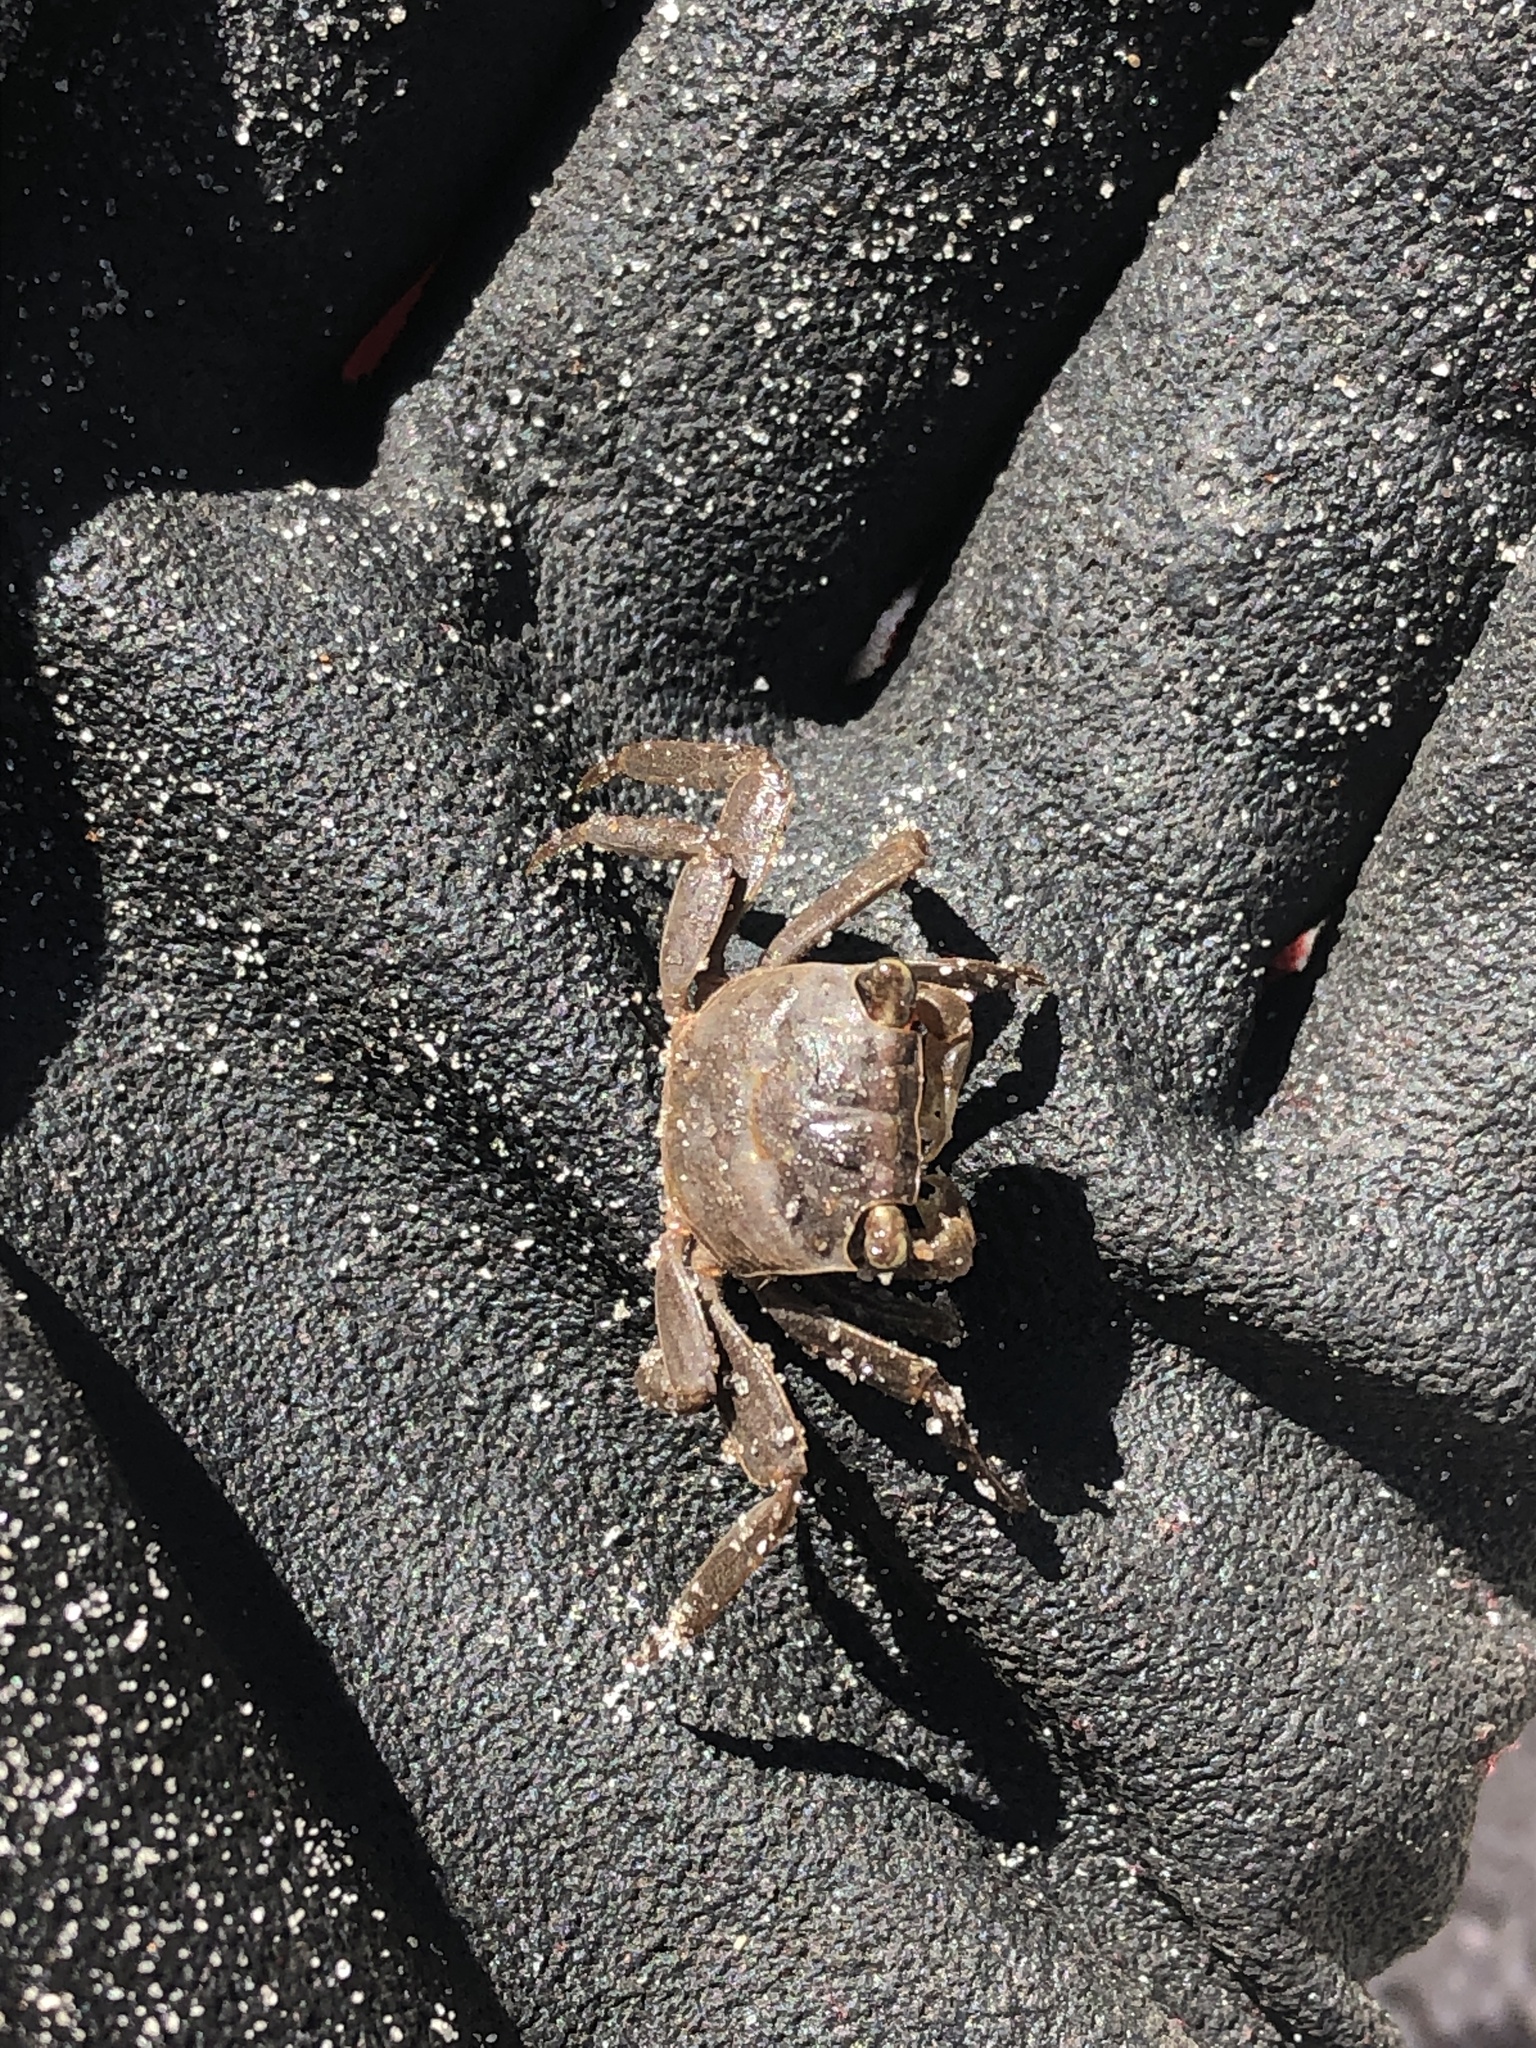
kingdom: Animalia
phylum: Arthropoda
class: Malacostraca
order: Decapoda
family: Sesarmidae
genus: Armases
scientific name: Armases cinereum
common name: Squareback marsh crab
